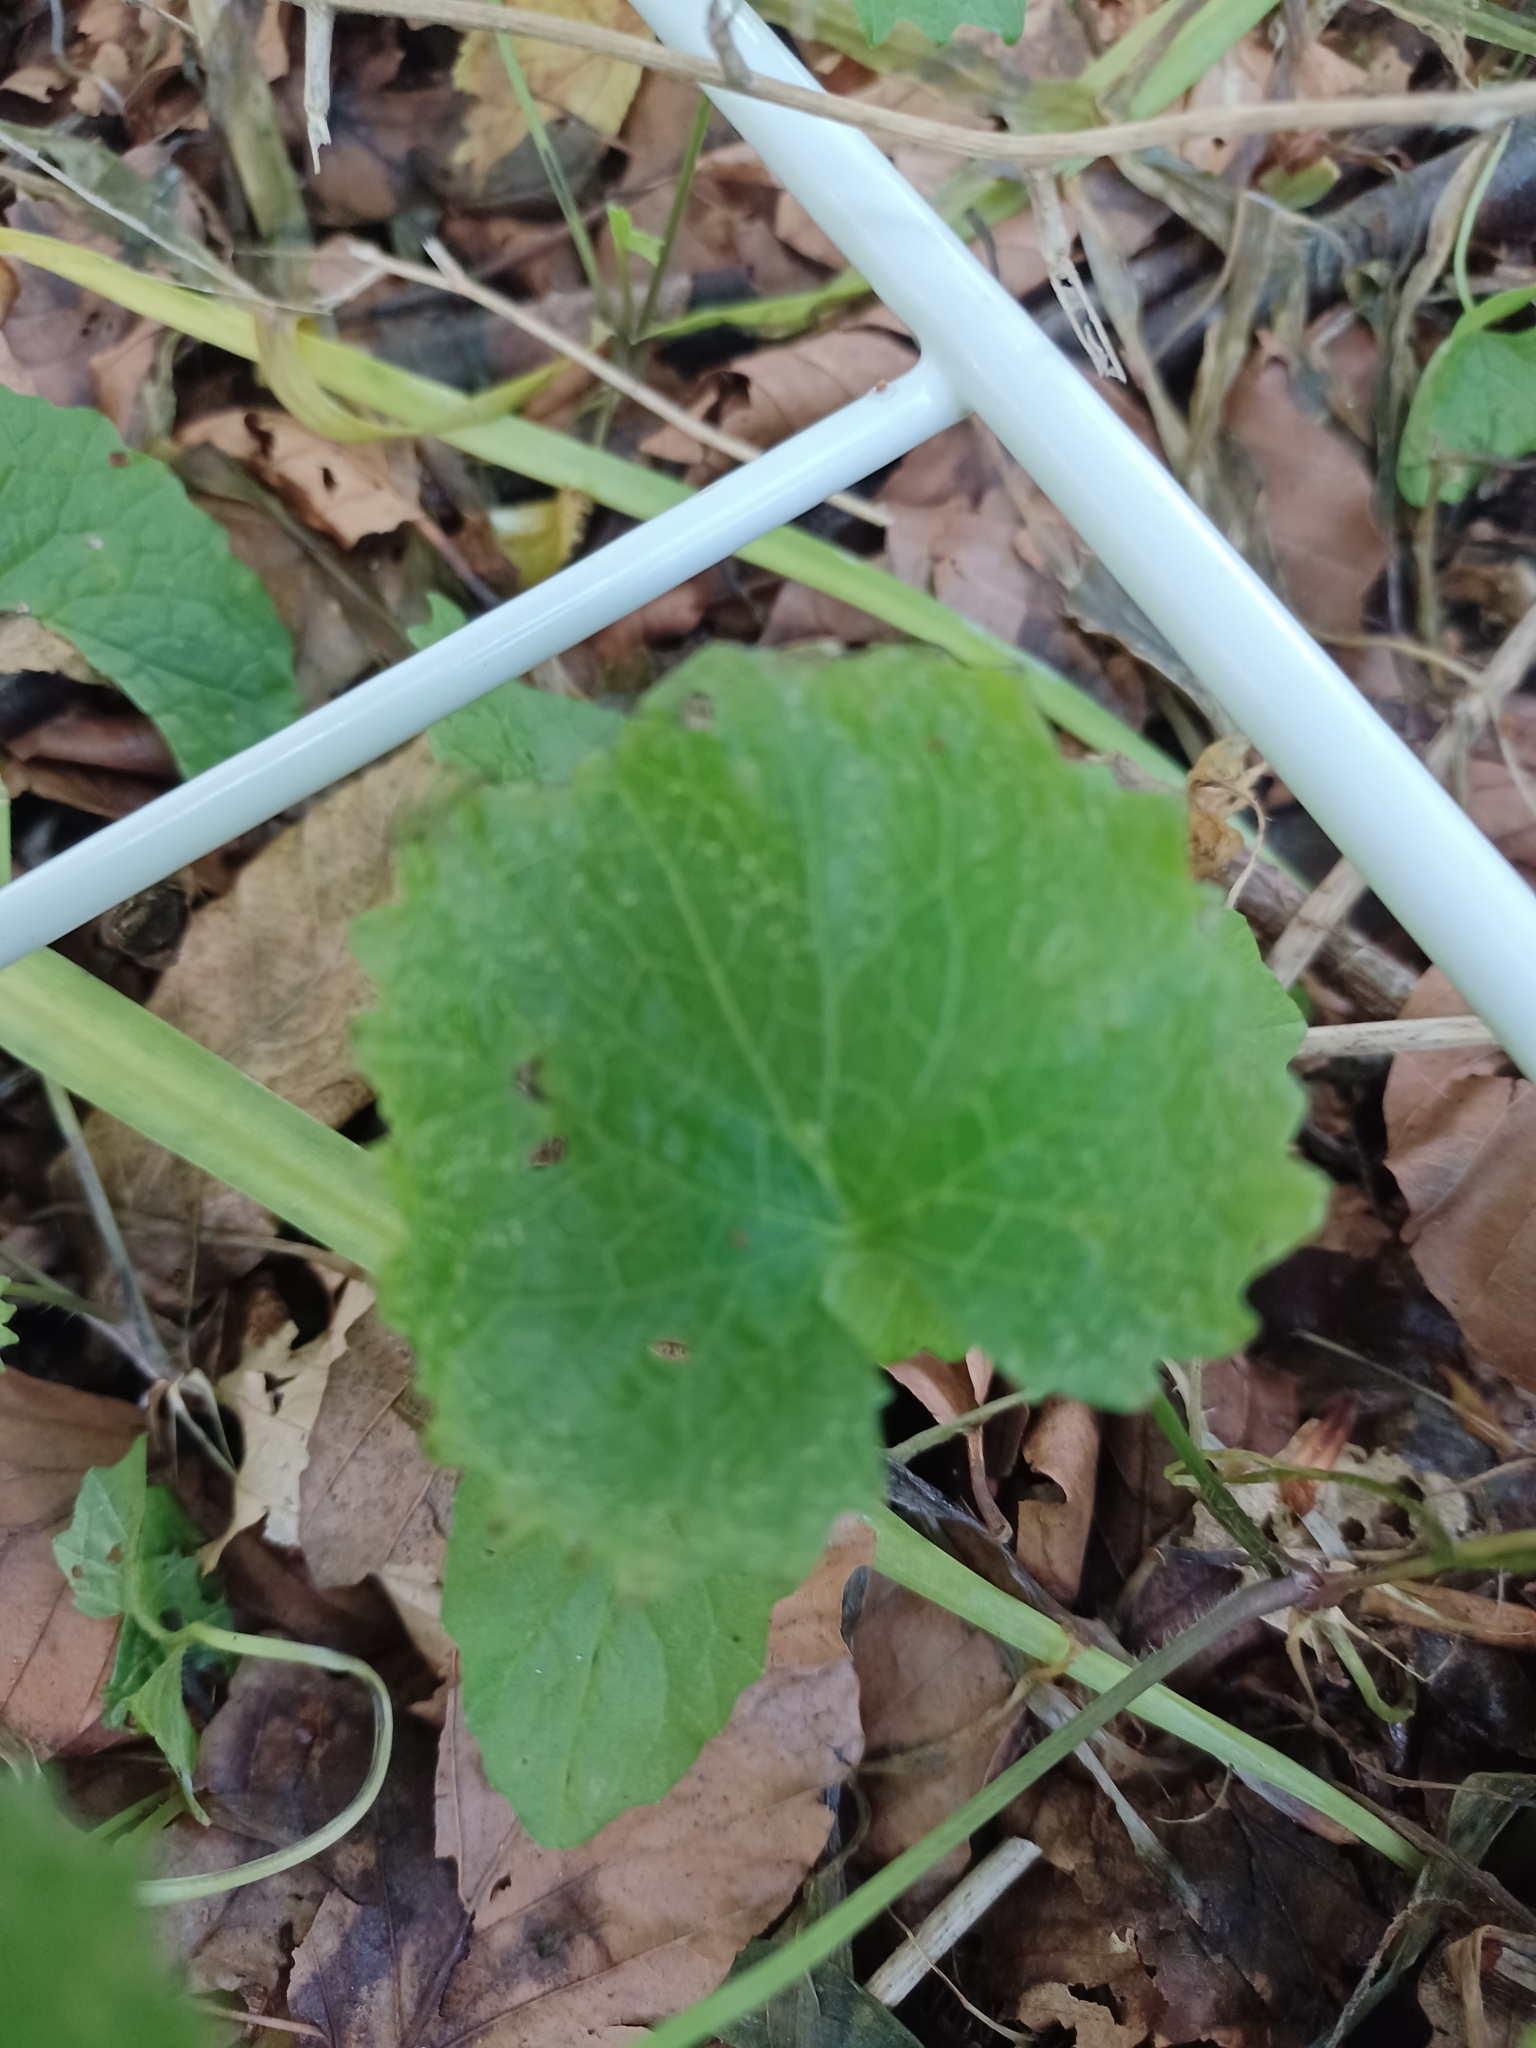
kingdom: Plantae
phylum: Tracheophyta
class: Magnoliopsida
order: Brassicales
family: Brassicaceae
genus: Alliaria
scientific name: Alliaria petiolata
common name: Garlic mustard
